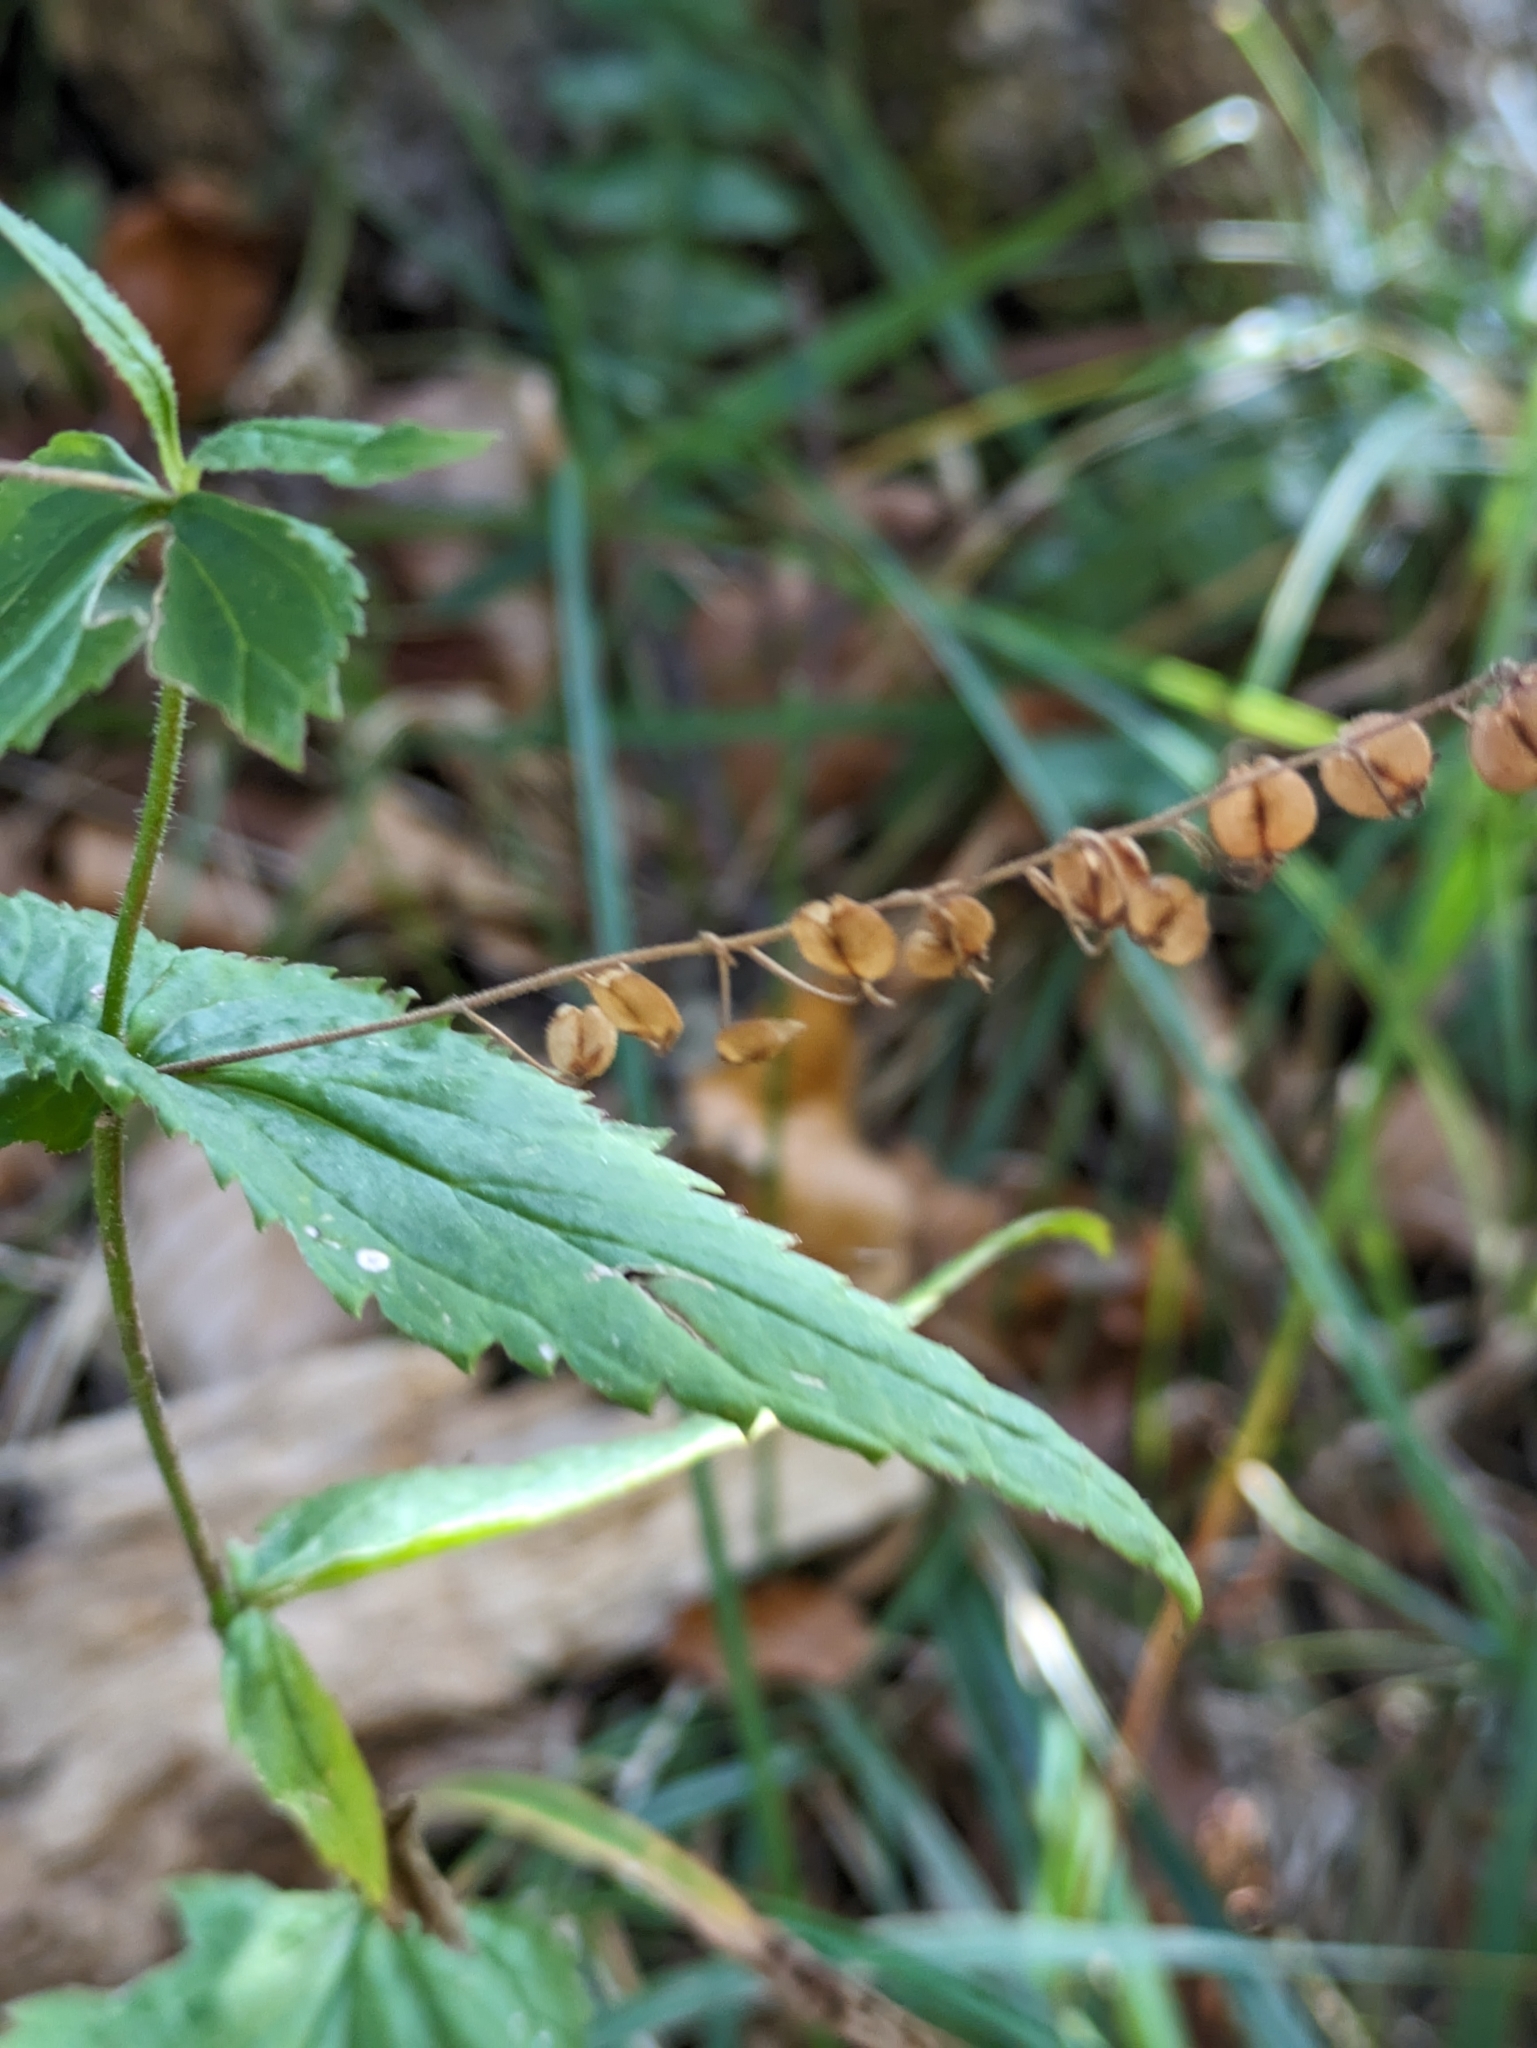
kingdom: Plantae
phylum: Tracheophyta
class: Magnoliopsida
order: Lamiales
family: Plantaginaceae
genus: Veronica
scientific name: Veronica urticifolia
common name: Nettle-leaf speedwell
